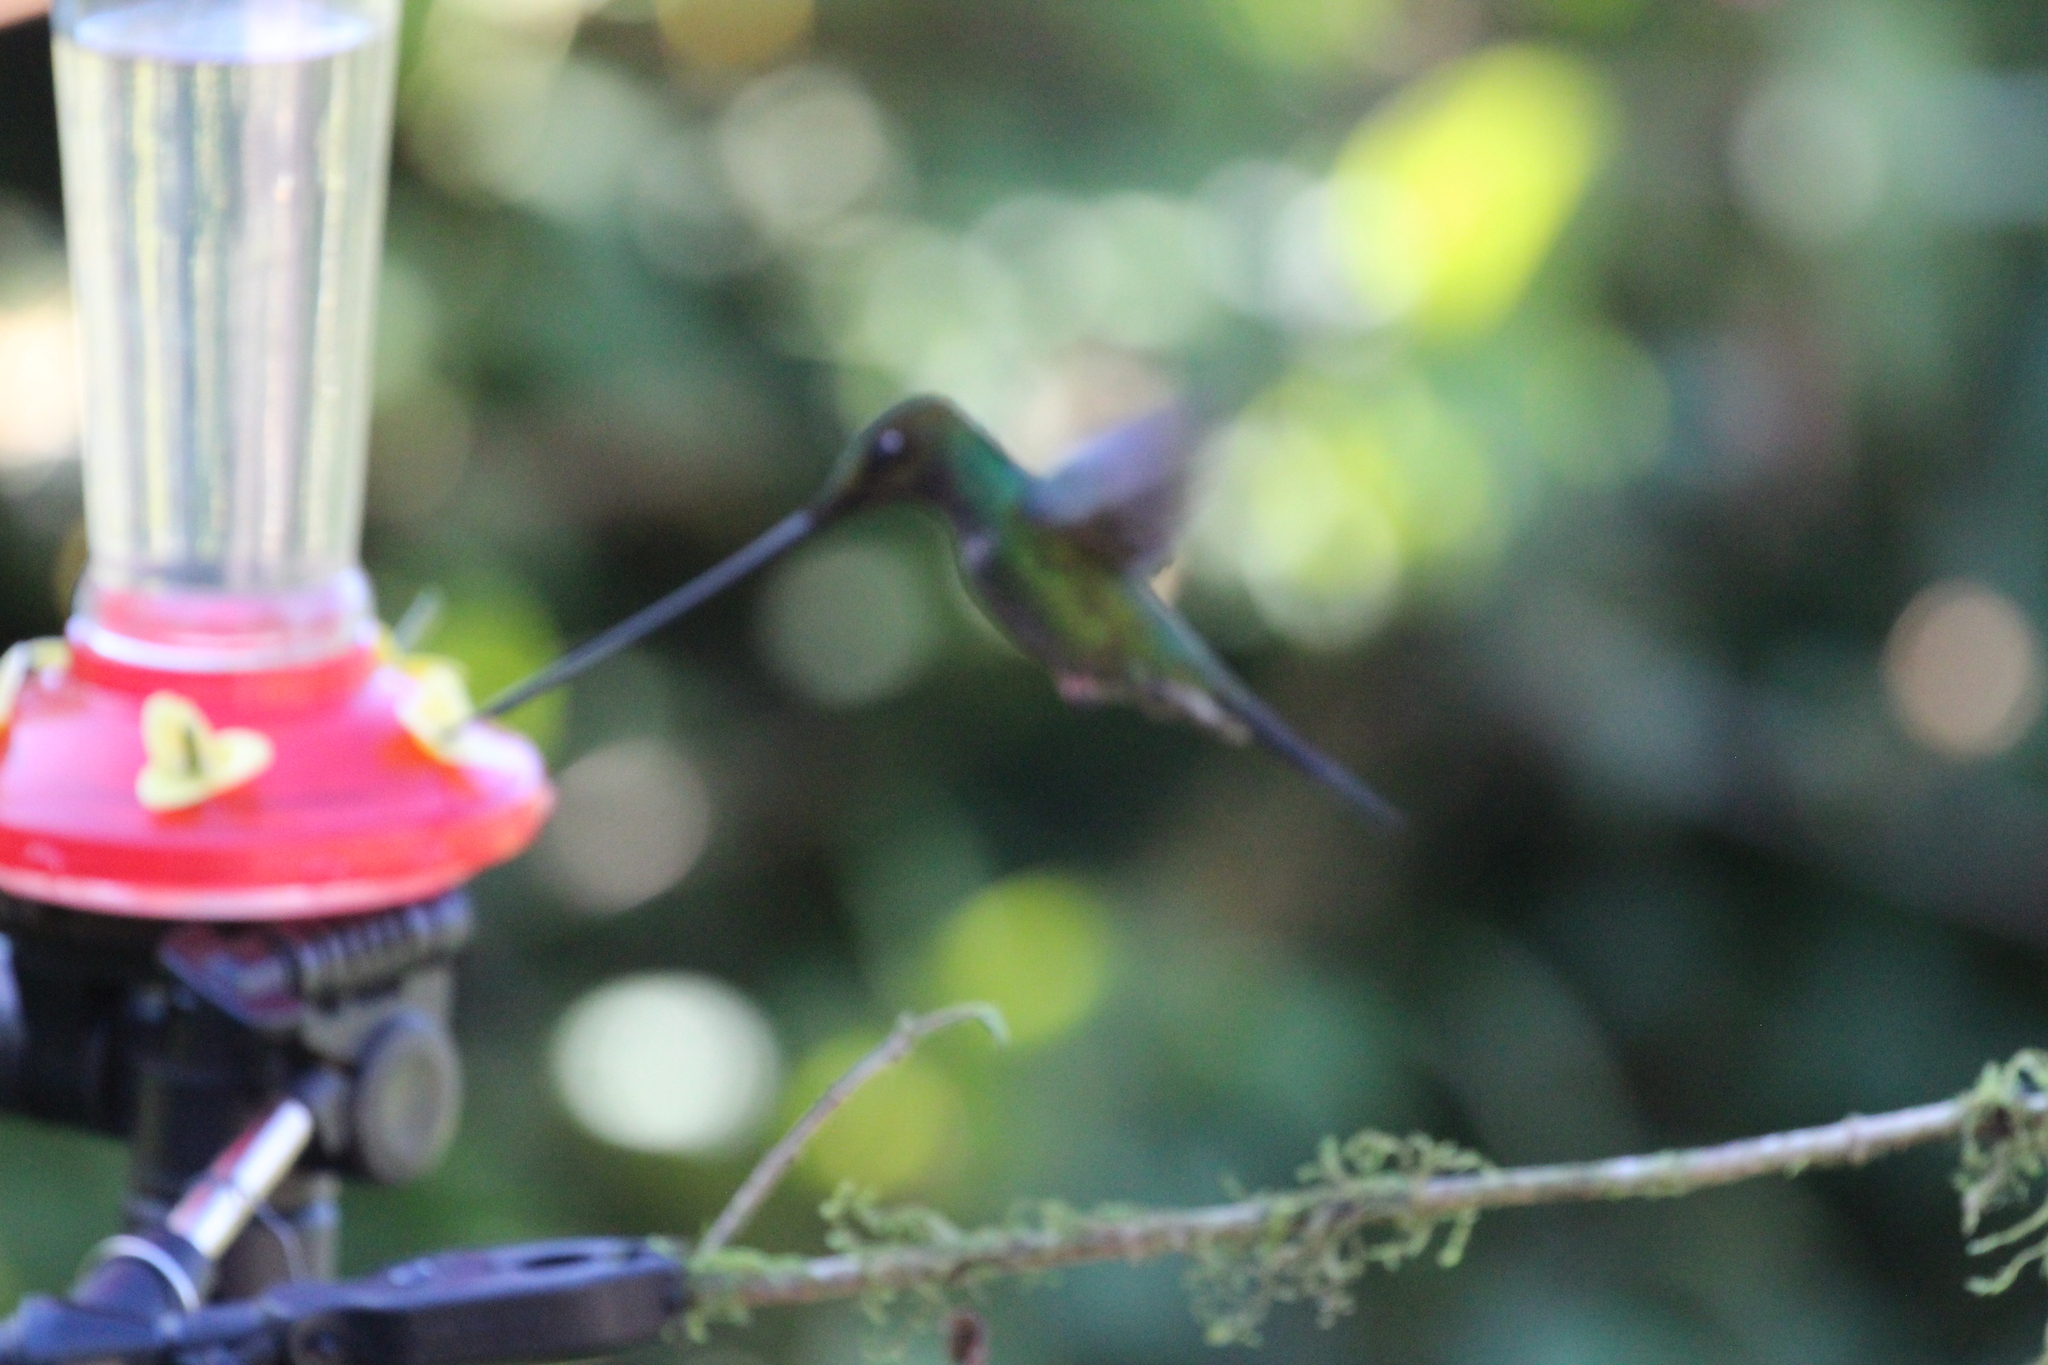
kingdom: Animalia
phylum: Chordata
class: Aves
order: Apodiformes
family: Trochilidae
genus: Ensifera
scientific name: Ensifera ensifera
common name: Sword-billed hummingbird
